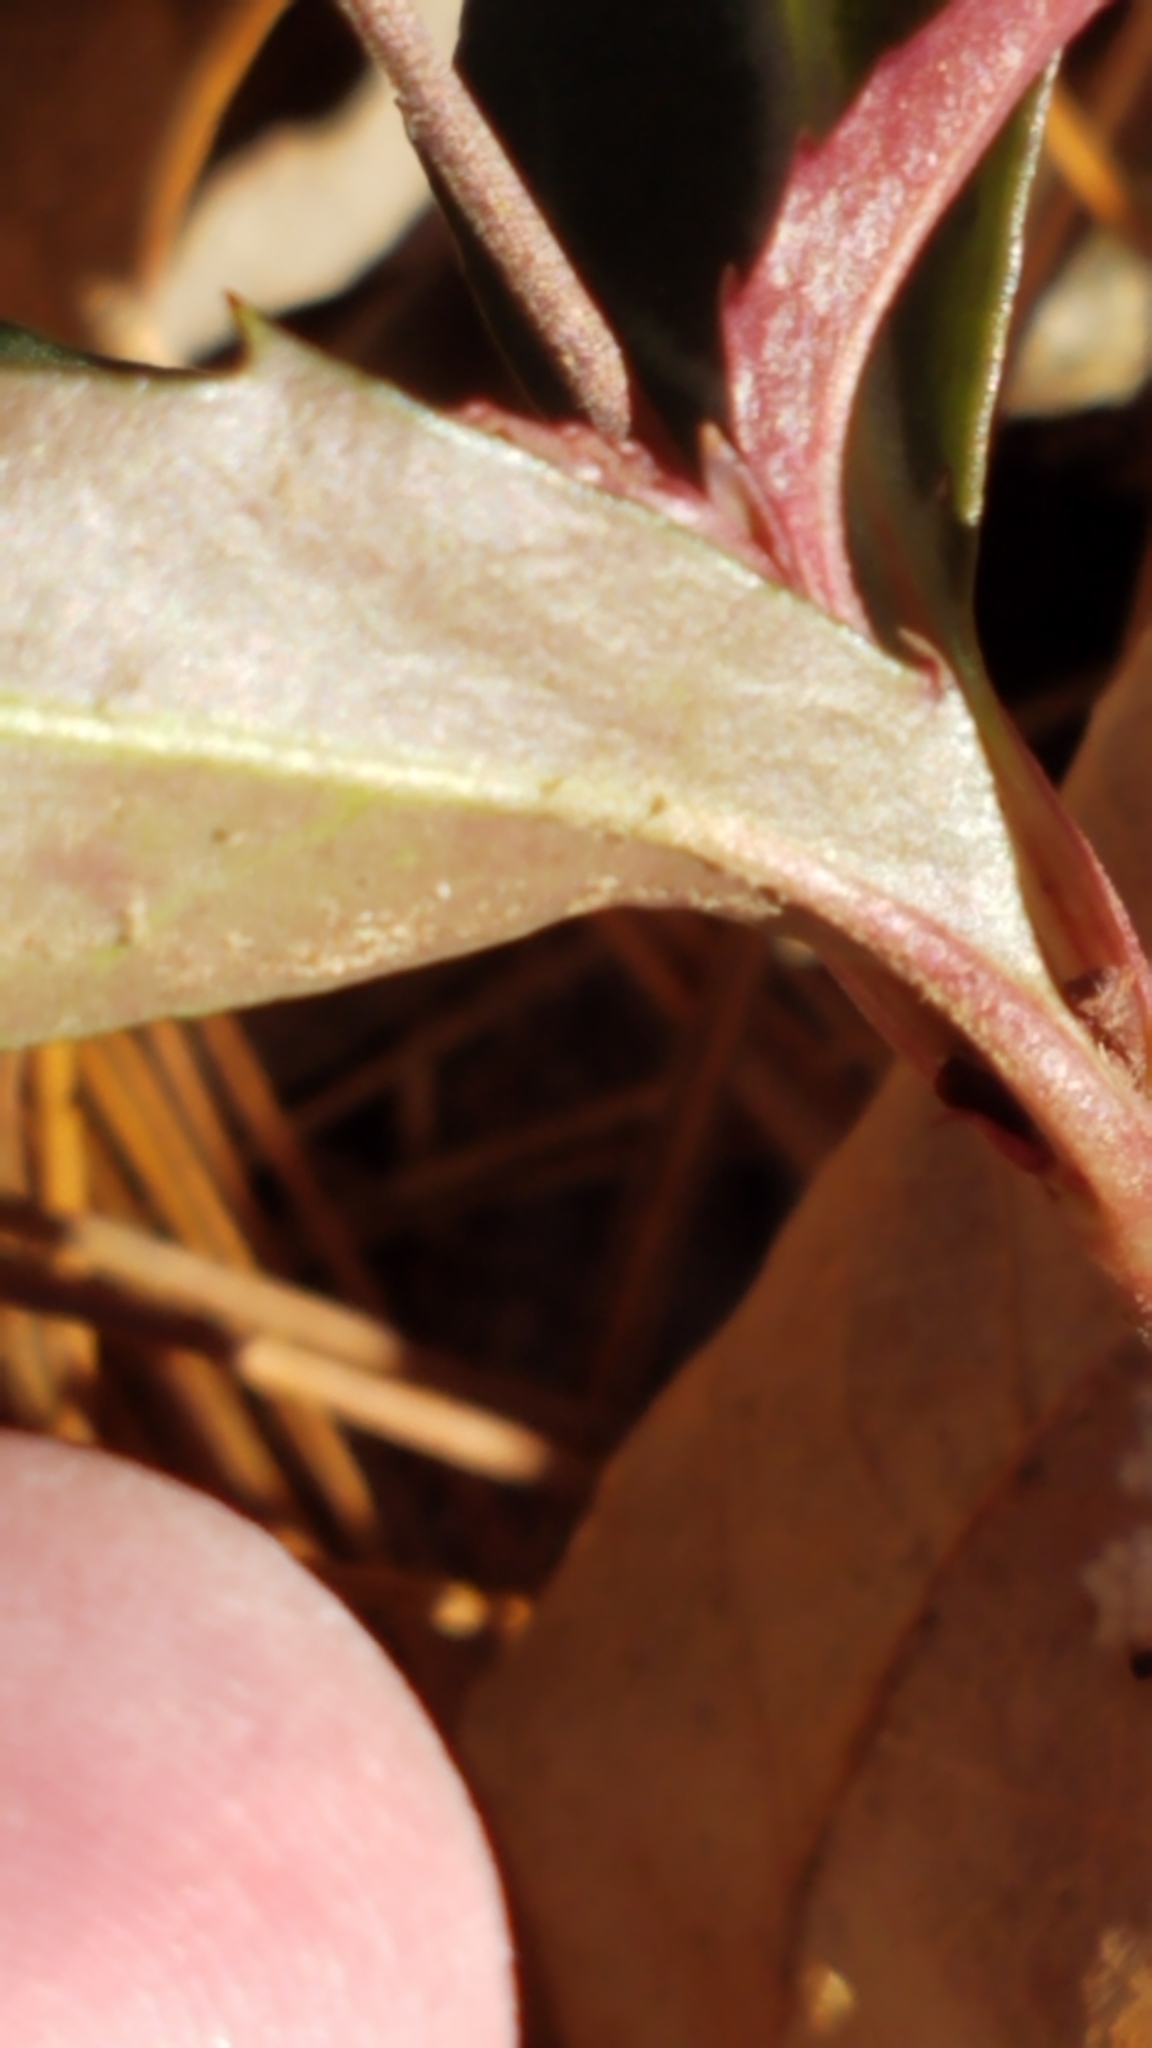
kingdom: Plantae
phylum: Tracheophyta
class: Magnoliopsida
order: Ericales
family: Ericaceae
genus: Chimaphila
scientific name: Chimaphila maculata
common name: Spotted pipsissewa
